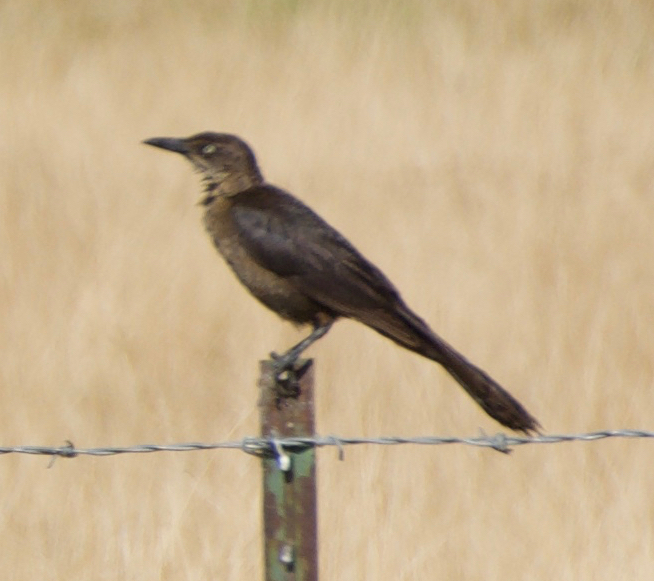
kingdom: Animalia
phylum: Chordata
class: Aves
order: Passeriformes
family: Icteridae
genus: Quiscalus
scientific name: Quiscalus mexicanus
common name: Great-tailed grackle
